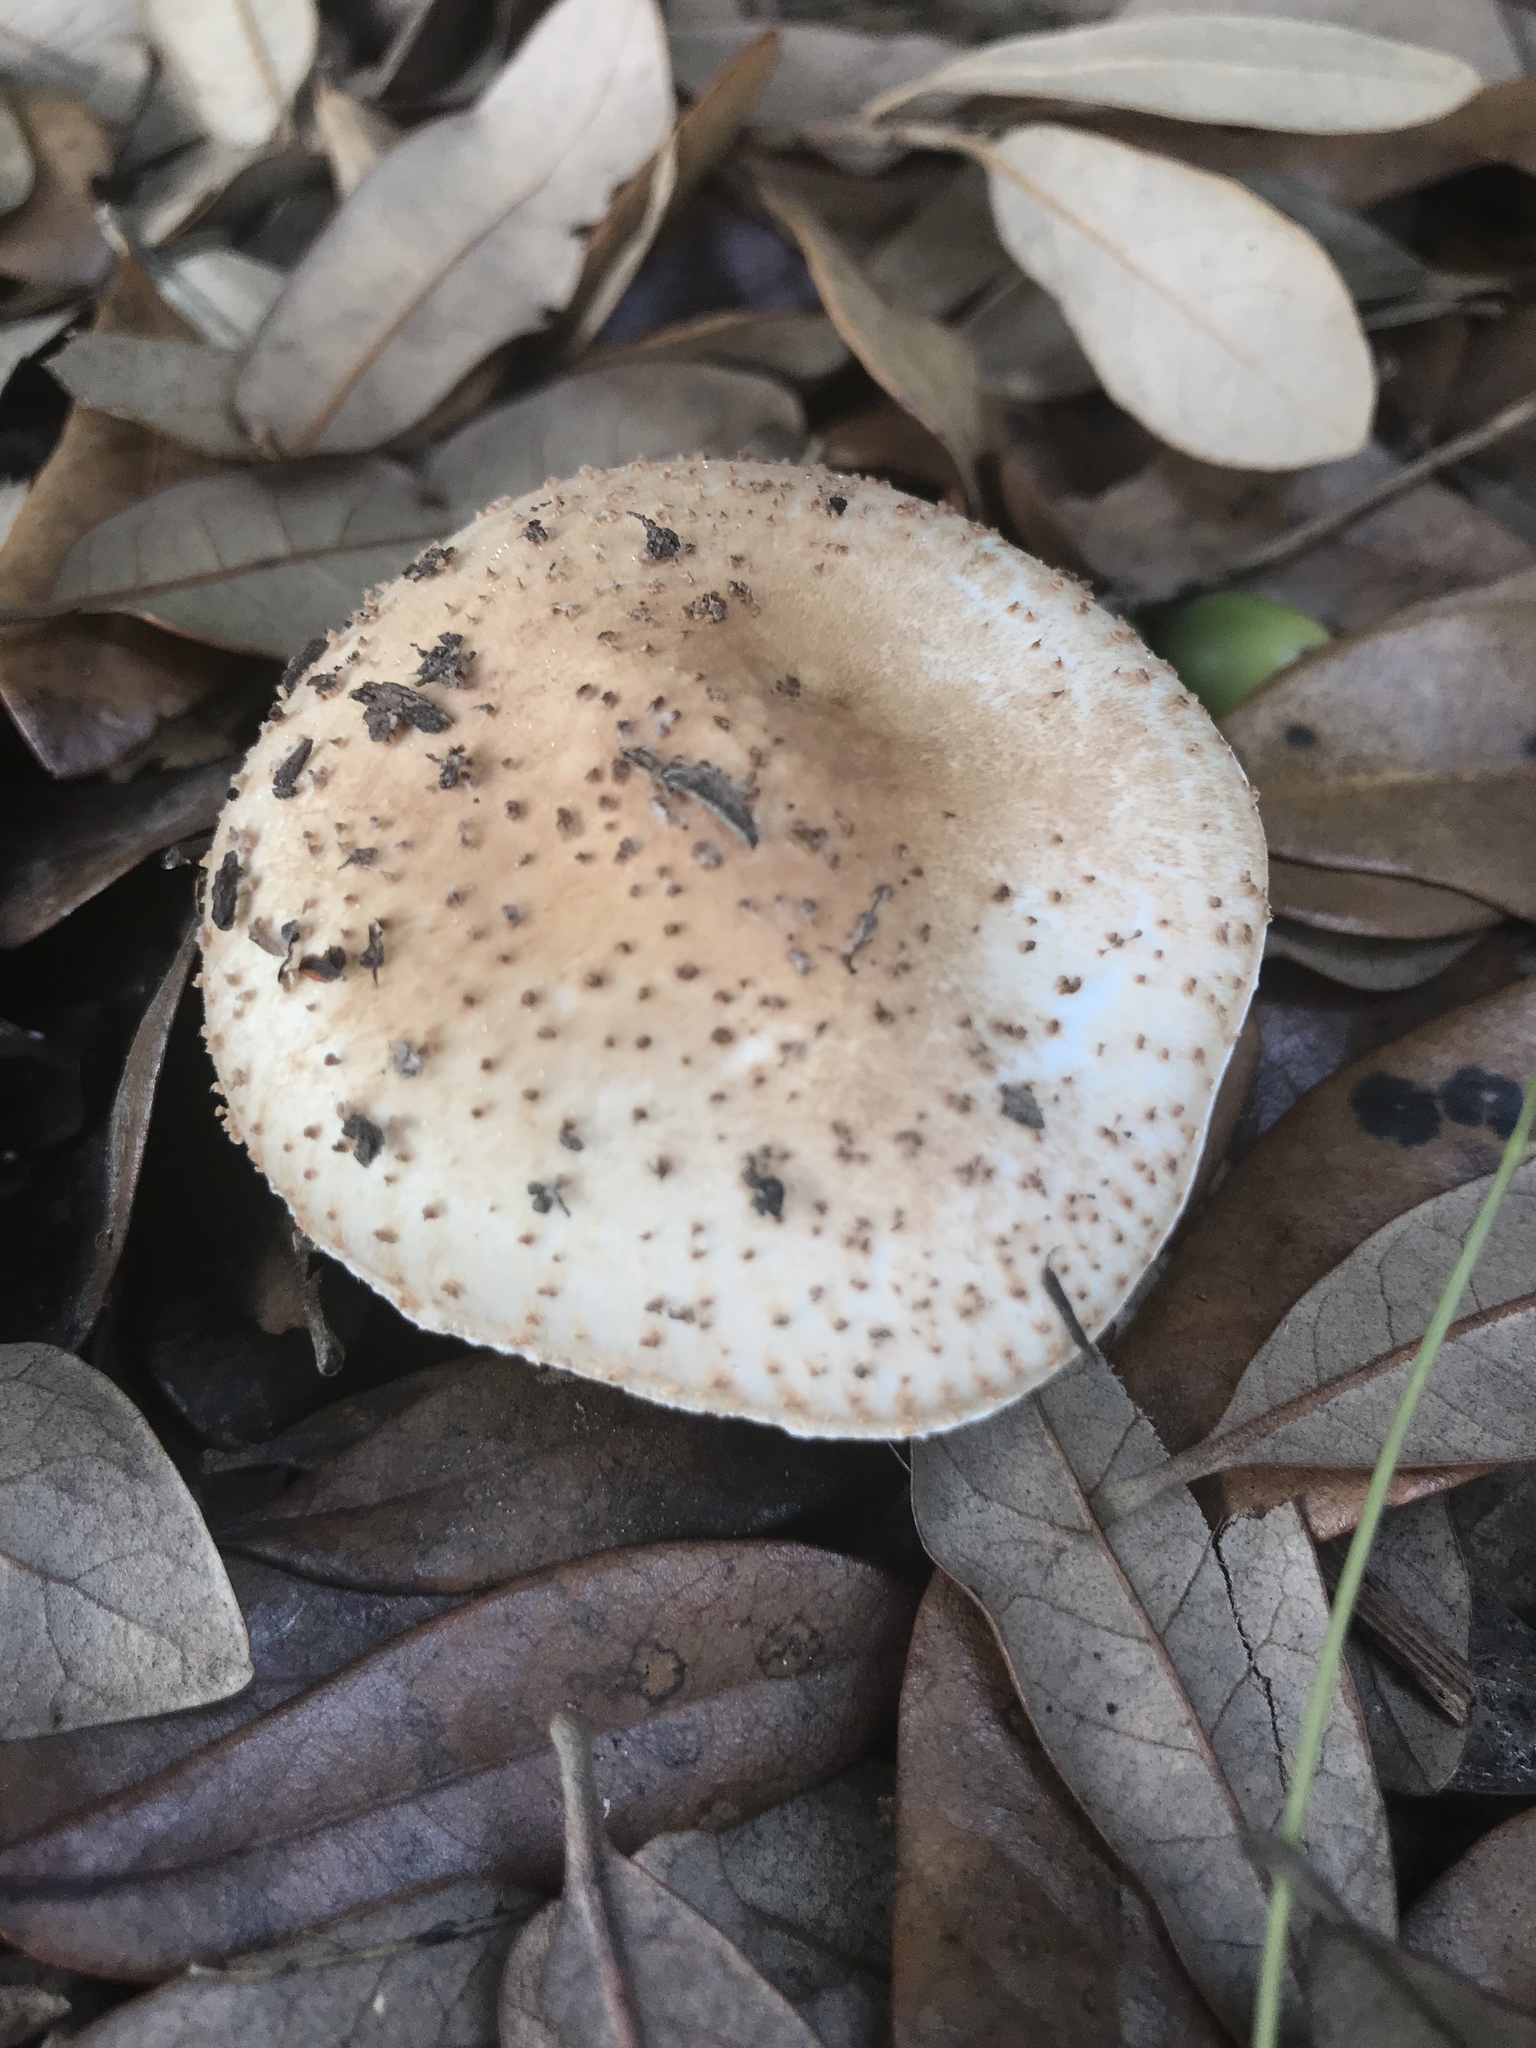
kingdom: Fungi
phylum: Basidiomycota
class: Agaricomycetes
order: Agaricales
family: Agaricaceae
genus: Echinoderma
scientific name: Echinoderma asperum
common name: Freckled dapperling
